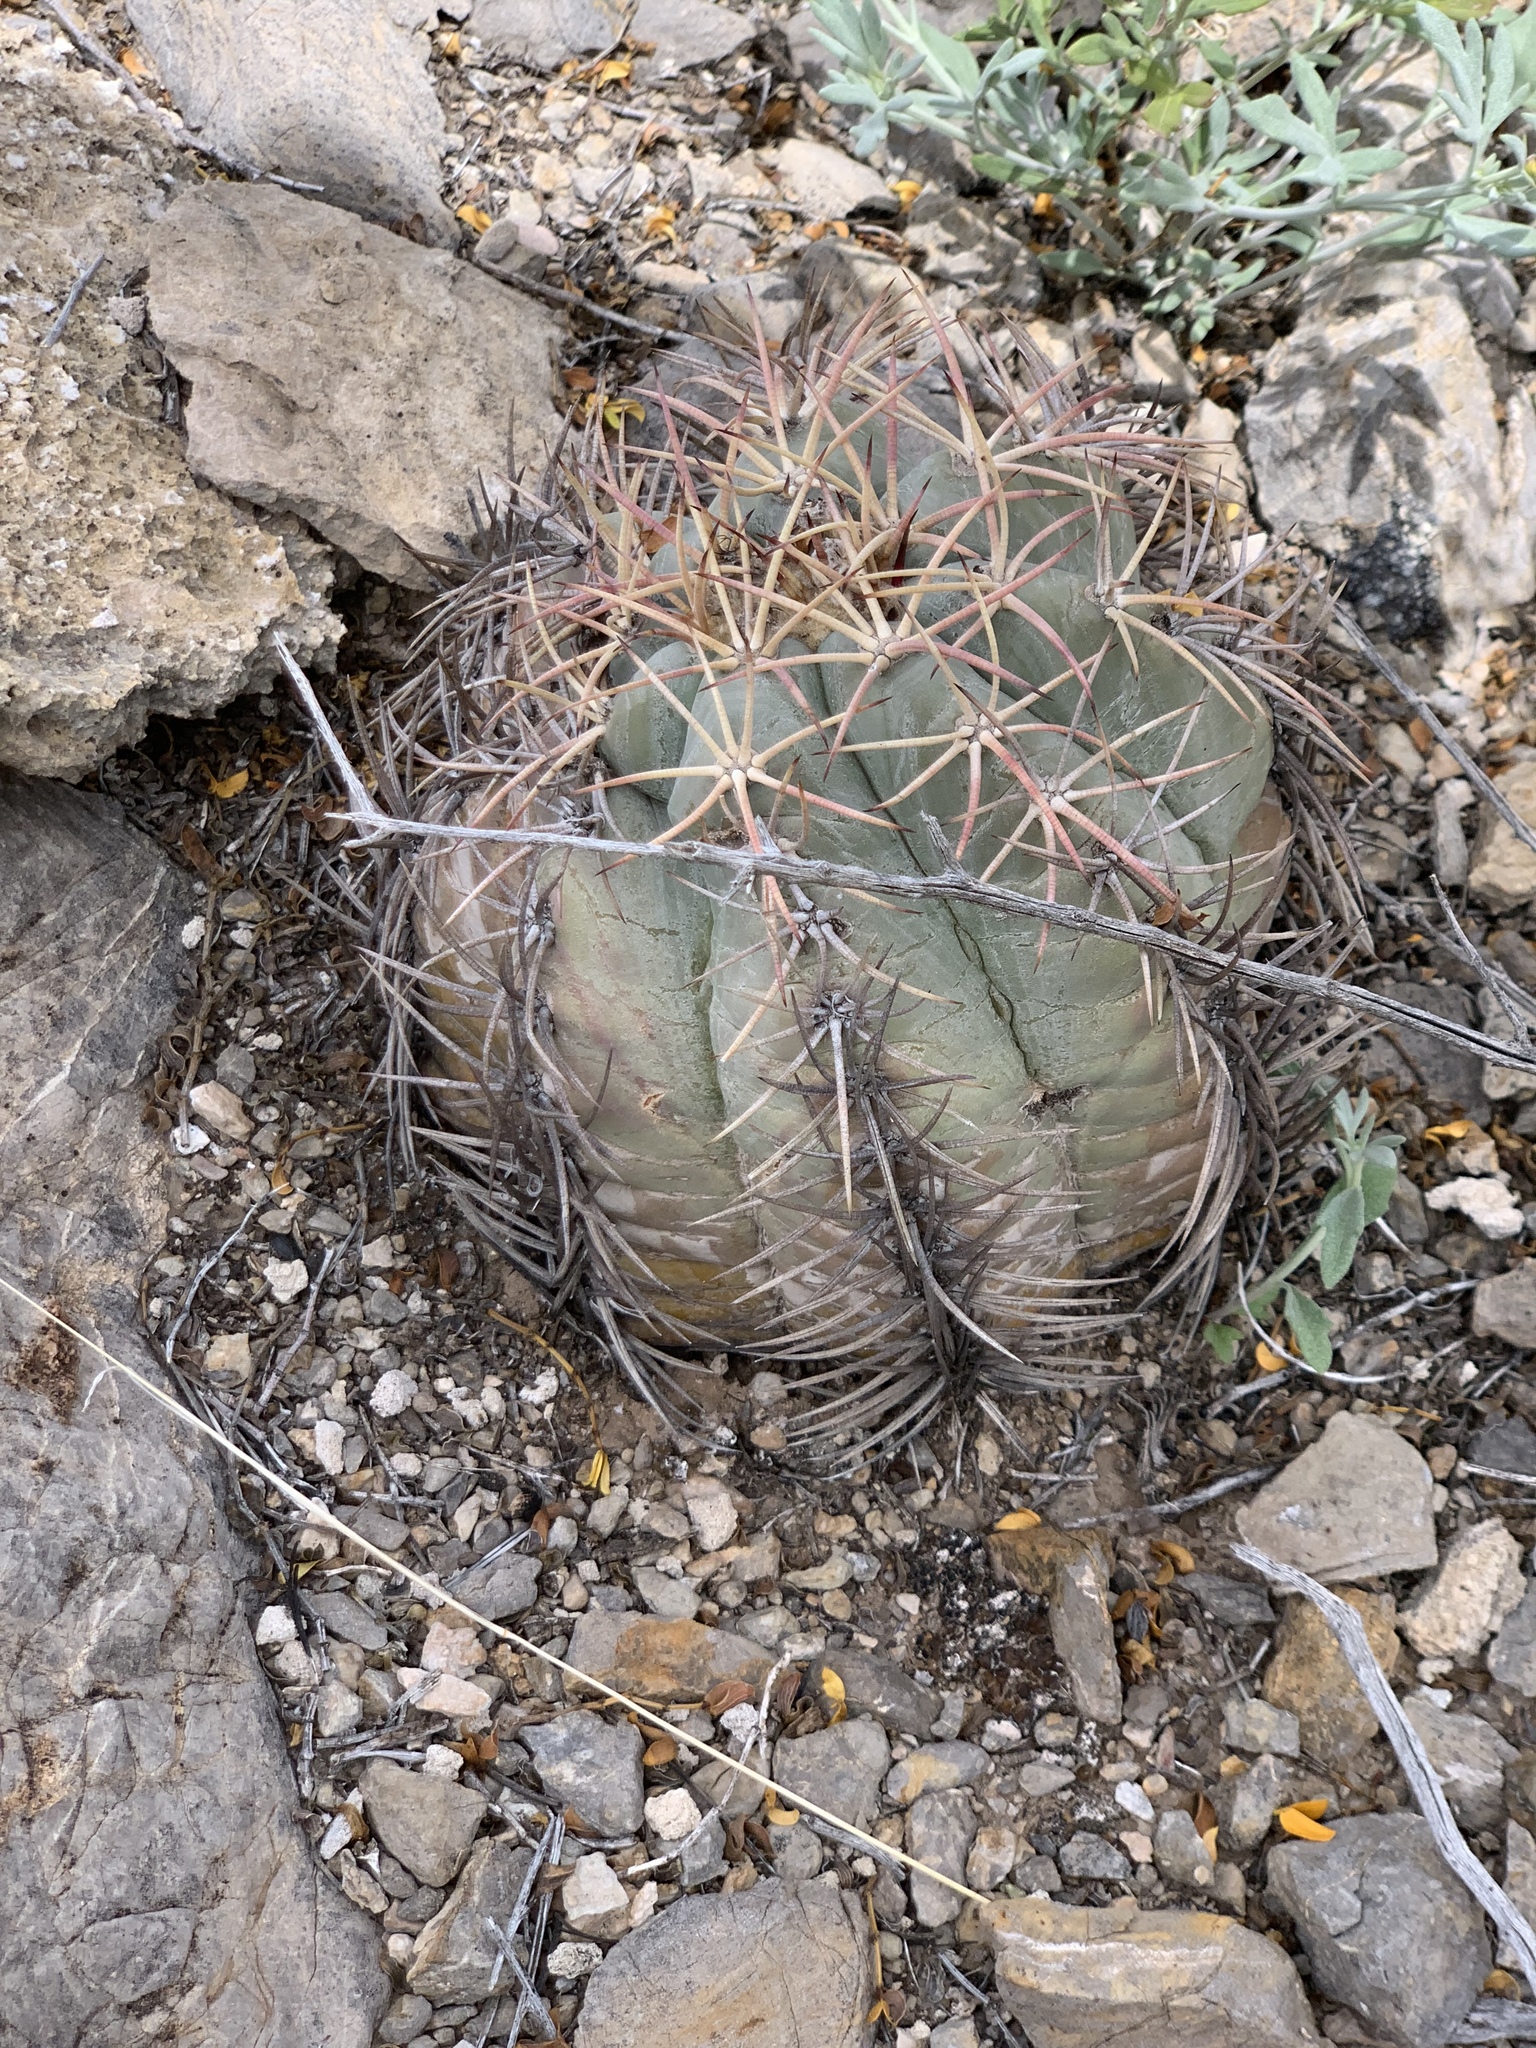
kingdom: Plantae
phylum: Tracheophyta
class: Magnoliopsida
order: Caryophyllales
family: Cactaceae
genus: Echinocactus
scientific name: Echinocactus horizonthalonius
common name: Devilshead
